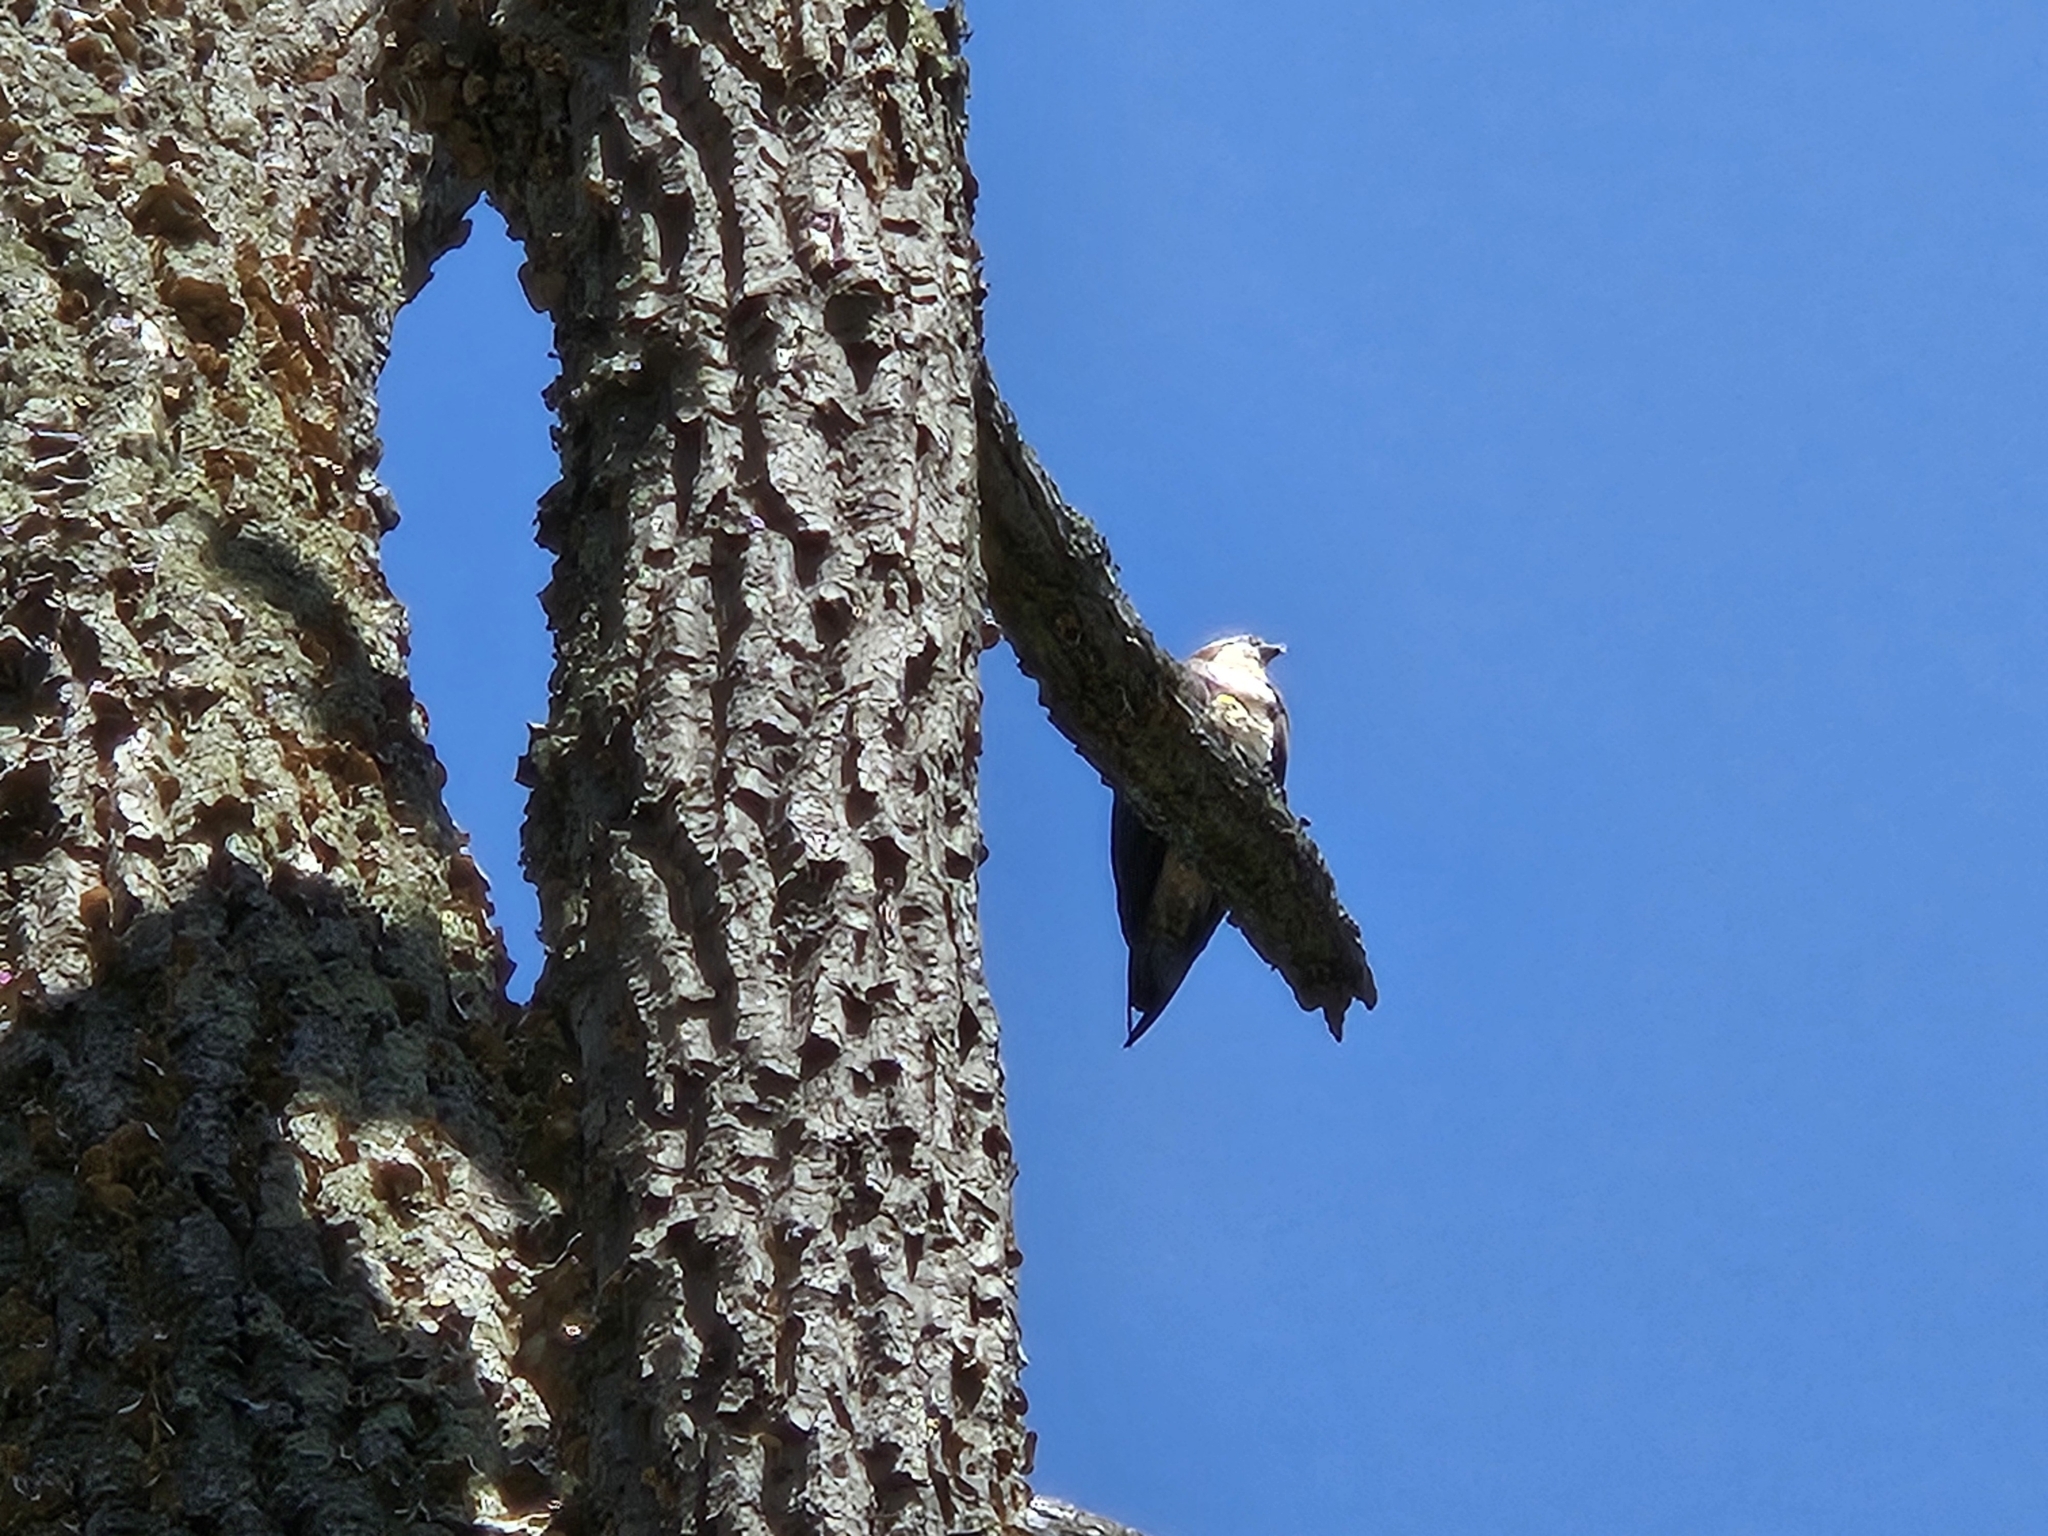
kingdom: Animalia
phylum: Chordata
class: Aves
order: Accipitriformes
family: Pandionidae
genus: Pandion
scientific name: Pandion haliaetus
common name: Osprey
